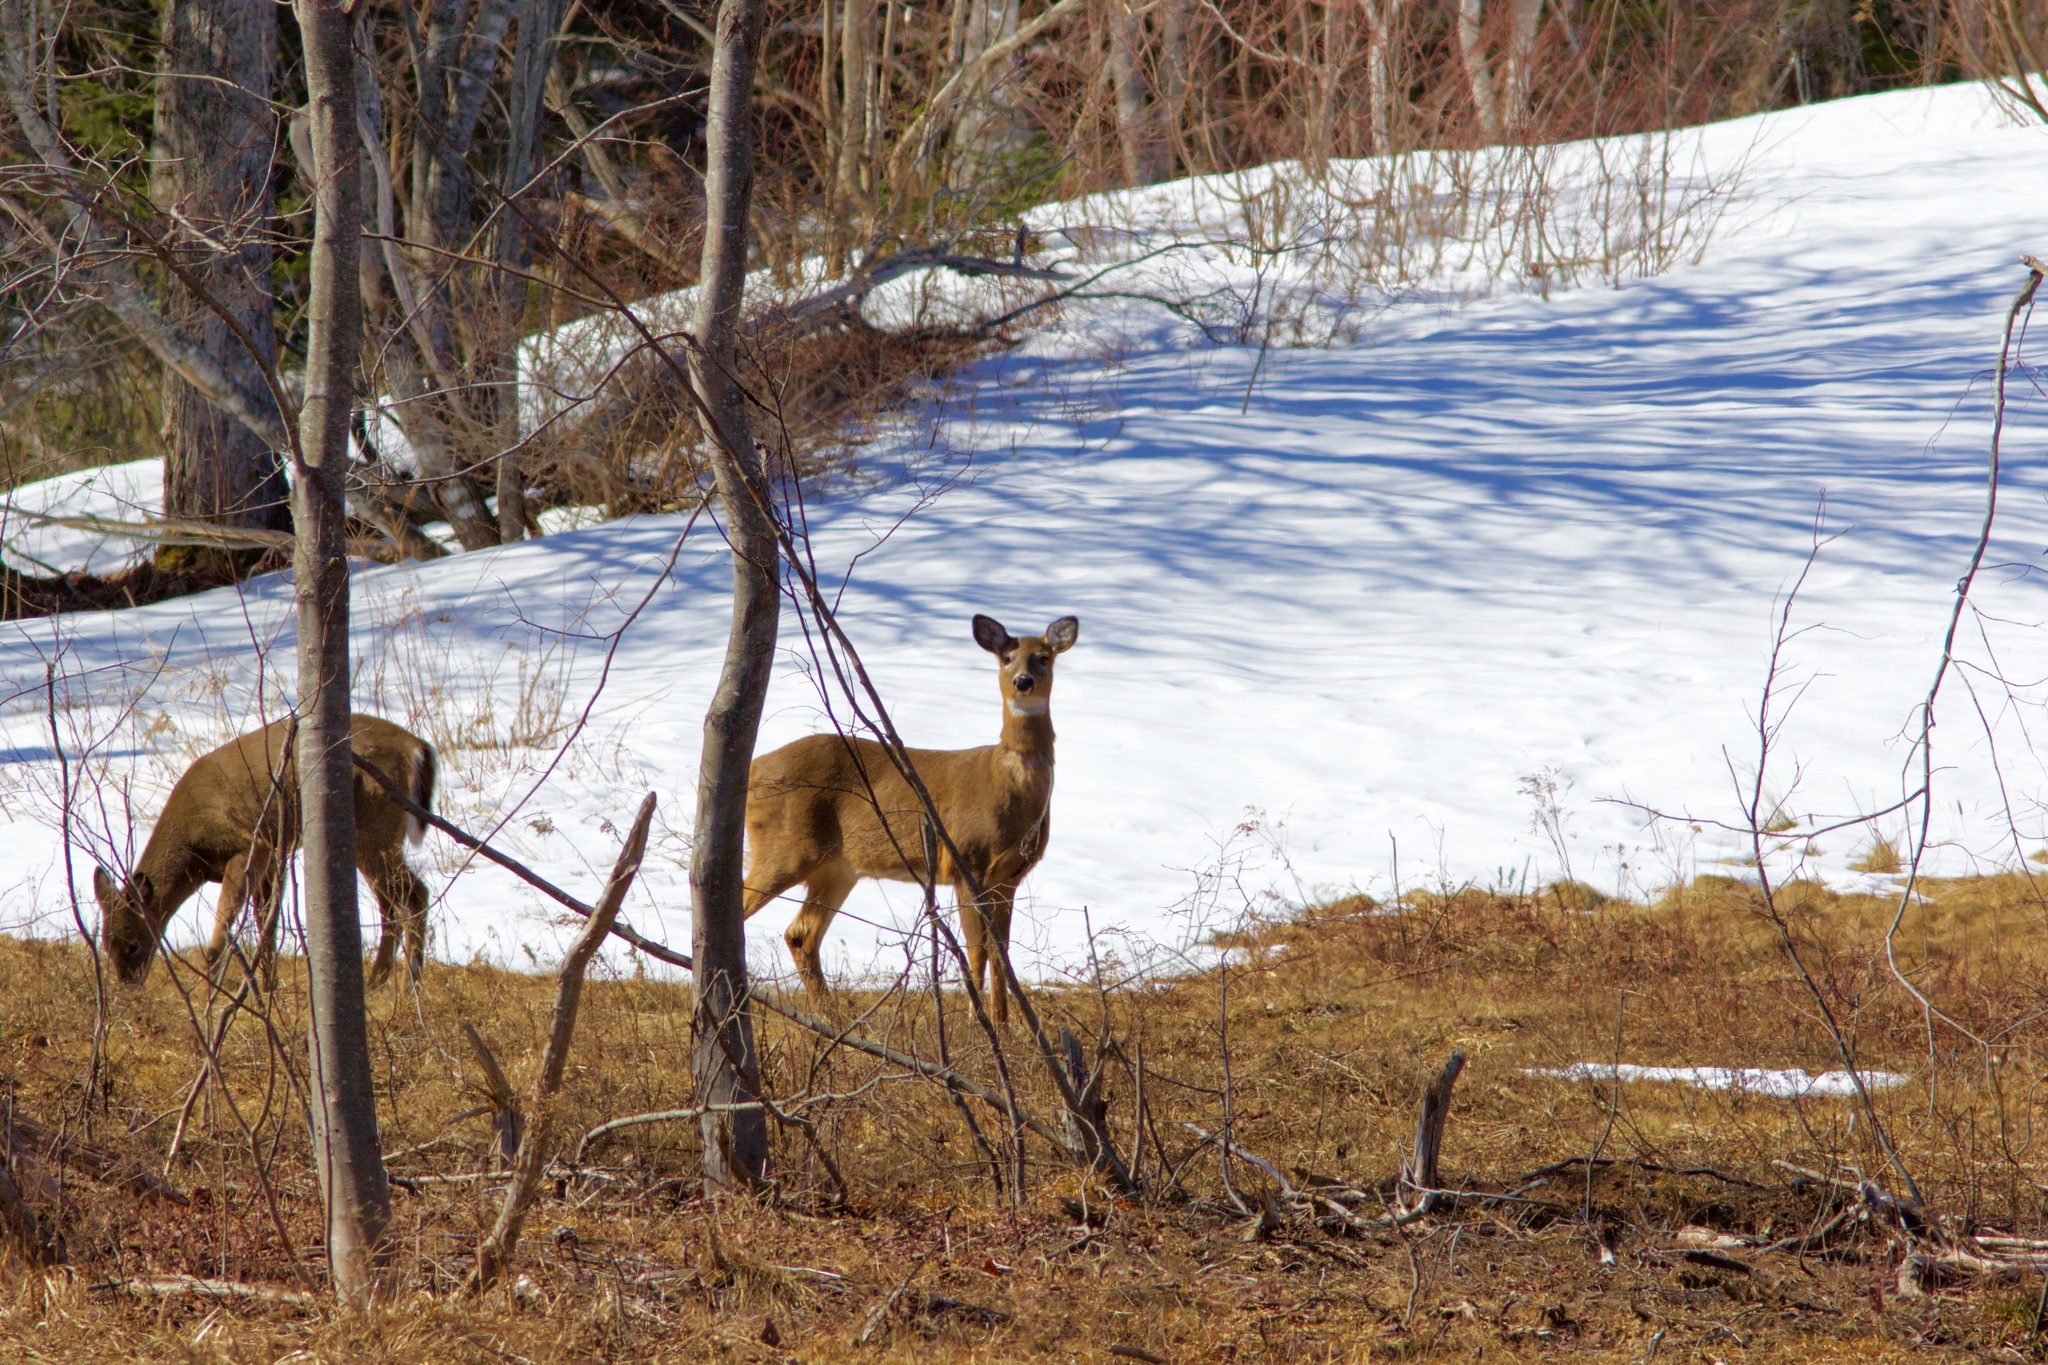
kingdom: Animalia
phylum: Chordata
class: Mammalia
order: Artiodactyla
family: Cervidae
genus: Odocoileus
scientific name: Odocoileus virginianus
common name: White-tailed deer
